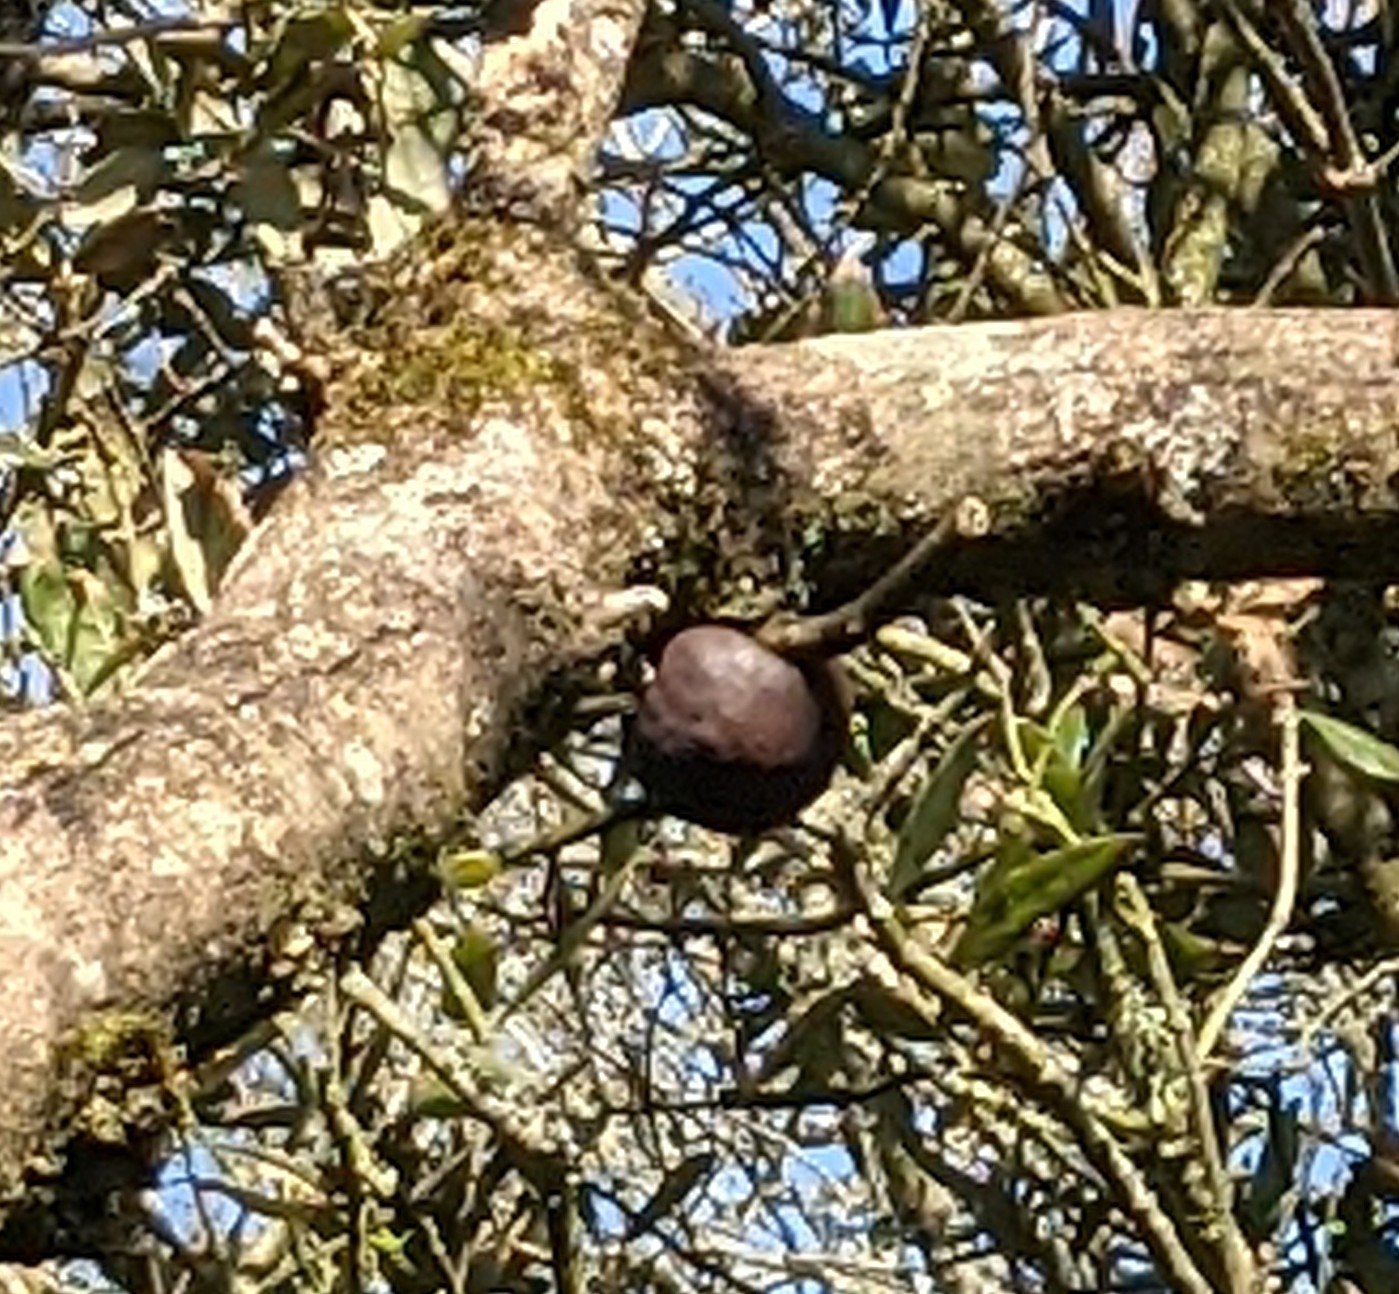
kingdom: Fungi
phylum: Ascomycota
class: Sordariomycetes
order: Xylariales
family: Hypoxylaceae
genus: Daldinia
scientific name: Daldinia concentrica
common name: Cramp balls
